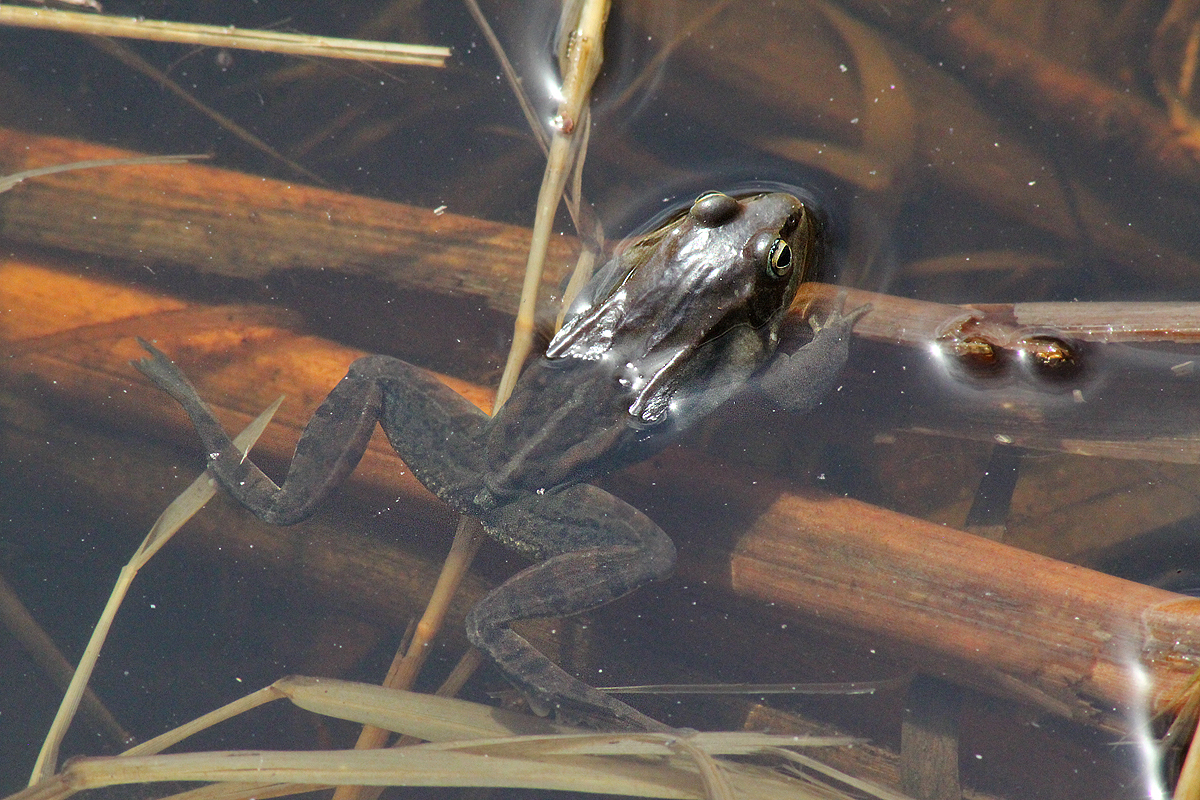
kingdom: Animalia
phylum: Chordata
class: Amphibia
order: Anura
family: Ranidae
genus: Lithobates
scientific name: Lithobates sylvaticus
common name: Wood frog
